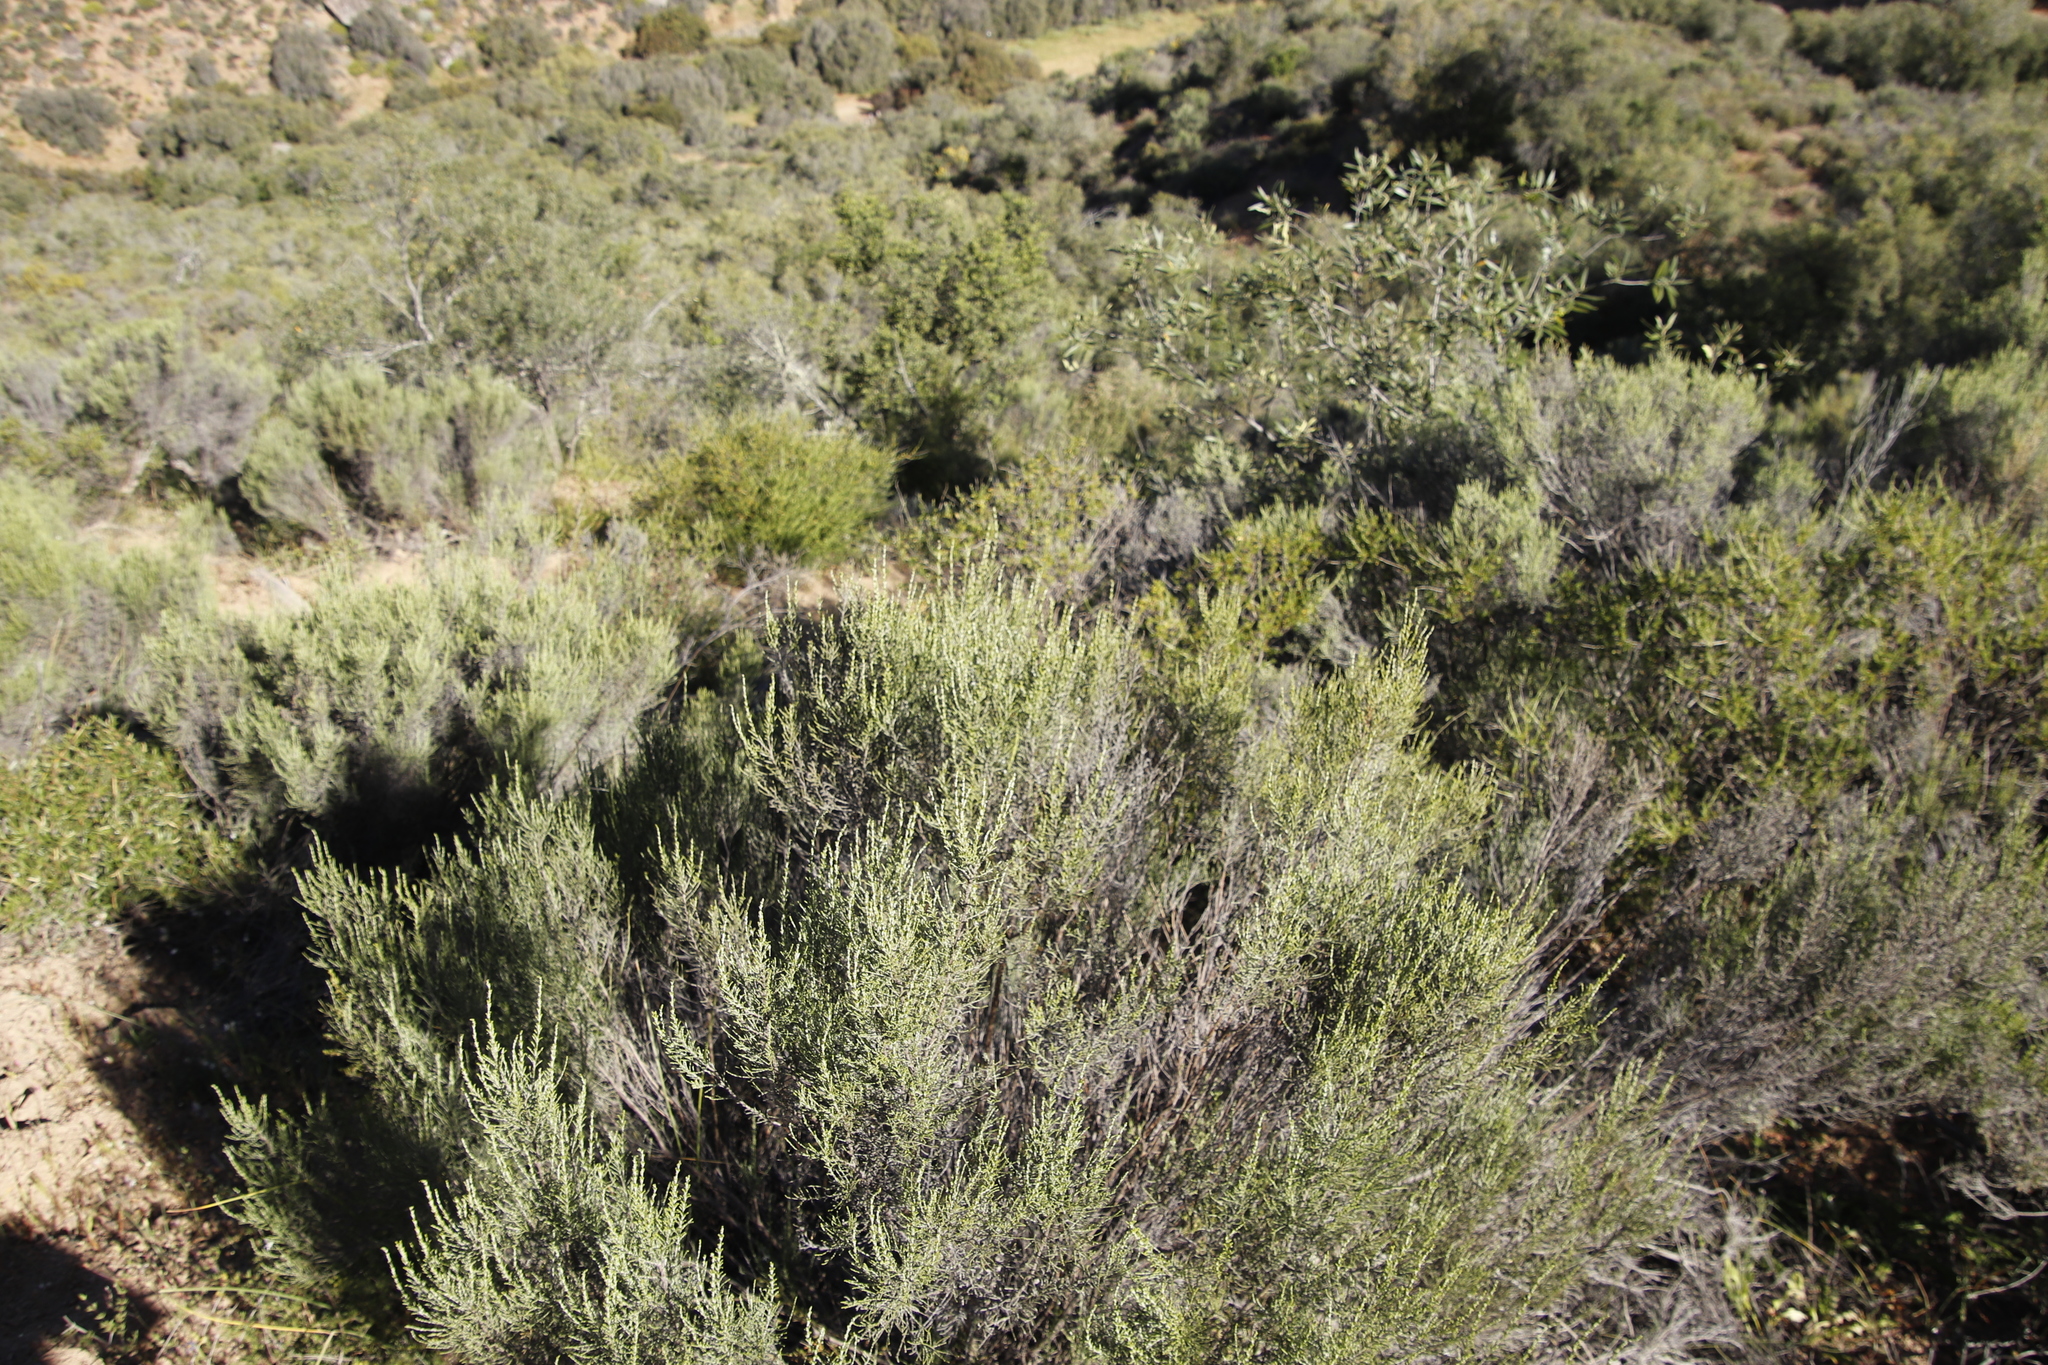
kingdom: Plantae
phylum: Tracheophyta
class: Magnoliopsida
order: Asterales
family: Asteraceae
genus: Dicerothamnus
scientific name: Dicerothamnus rhinocerotis
